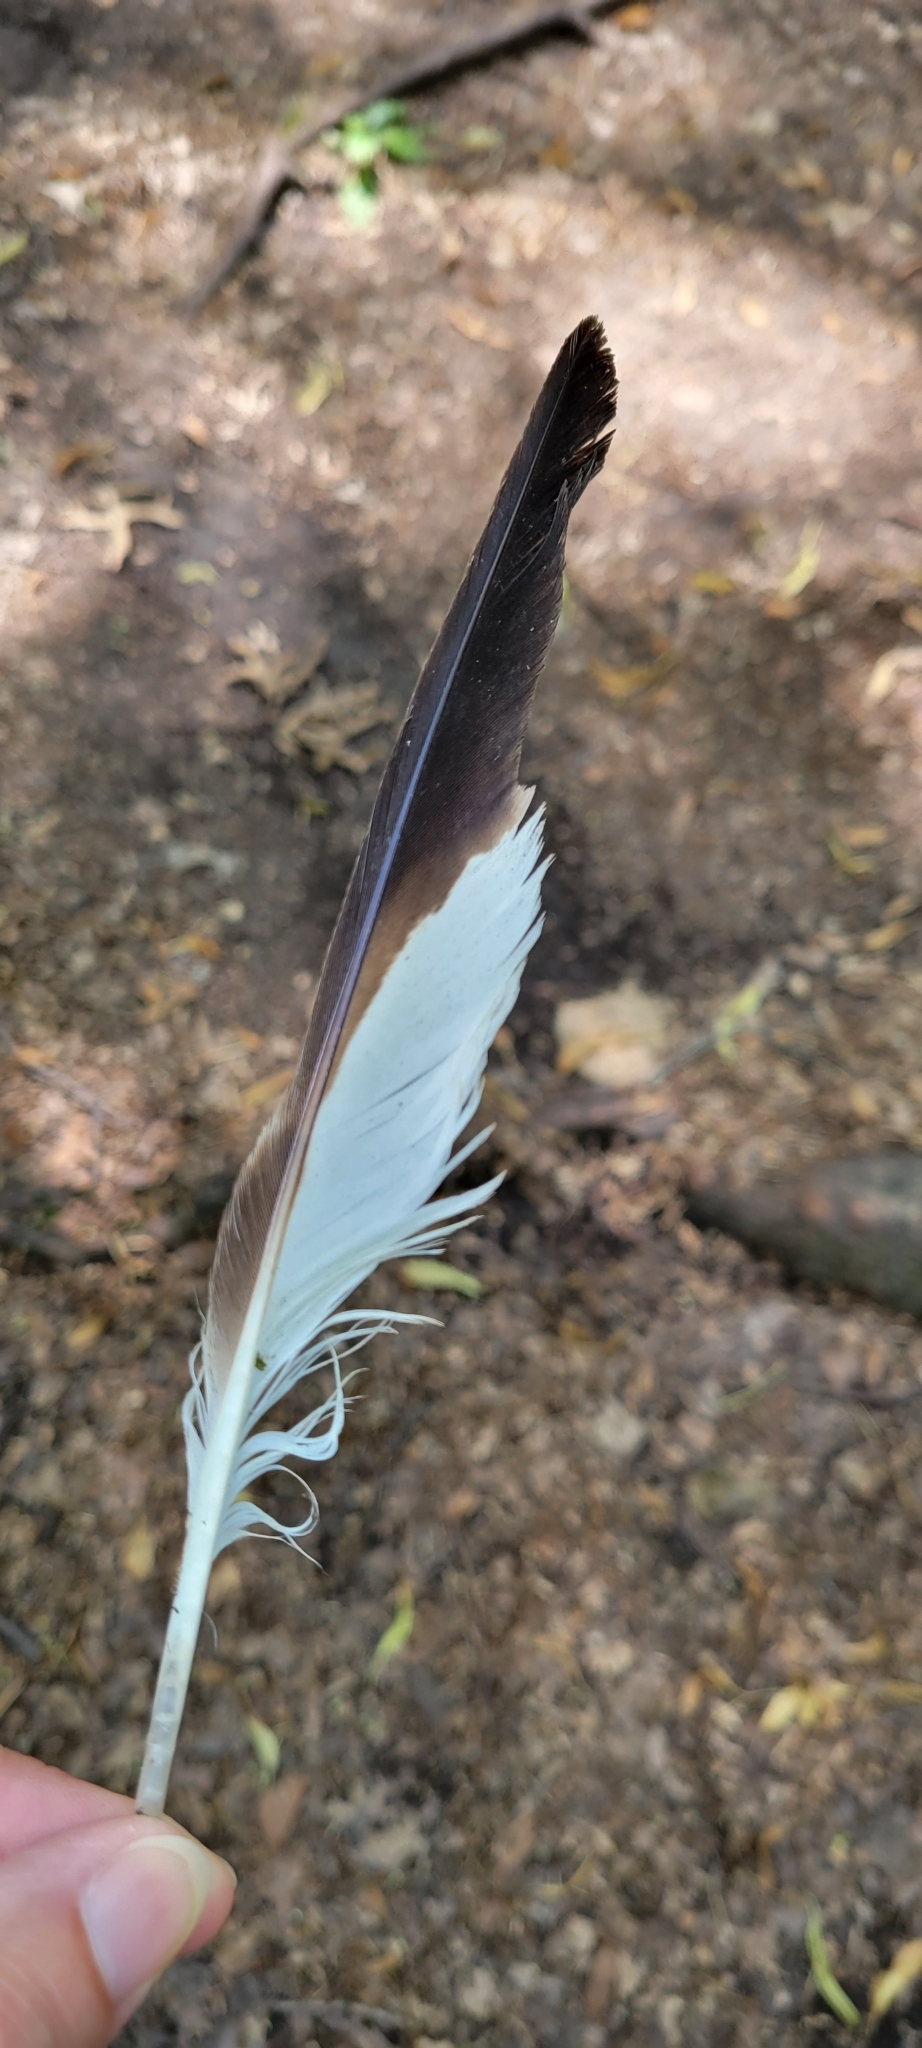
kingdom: Animalia
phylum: Chordata
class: Aves
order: Accipitriformes
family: Accipitridae
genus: Buteo
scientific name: Buteo platypterus
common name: Broad-winged hawk
